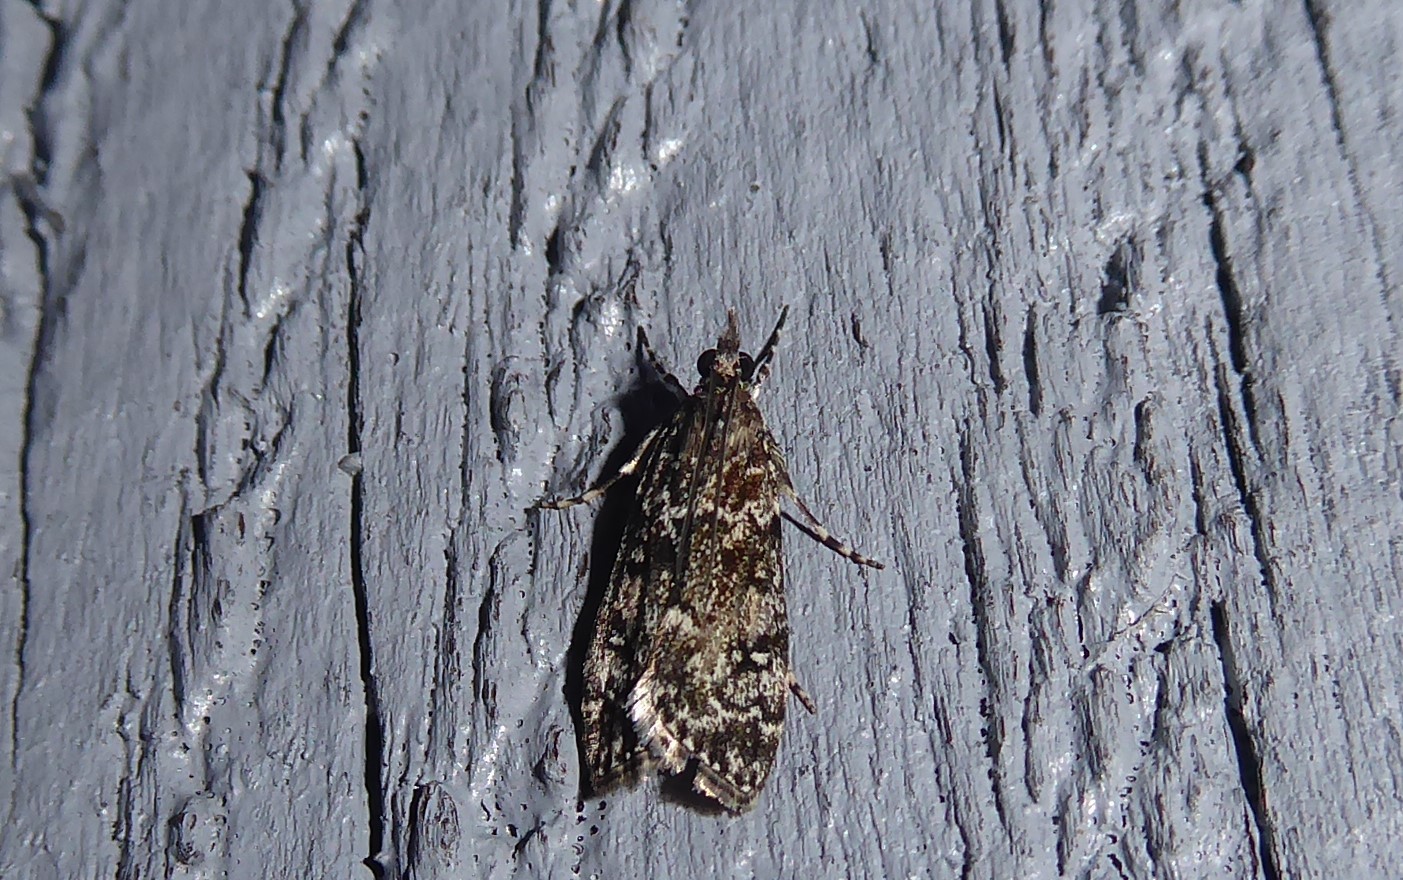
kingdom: Animalia
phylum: Arthropoda
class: Insecta
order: Lepidoptera
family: Crambidae
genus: Eudonia
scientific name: Eudonia philerga
